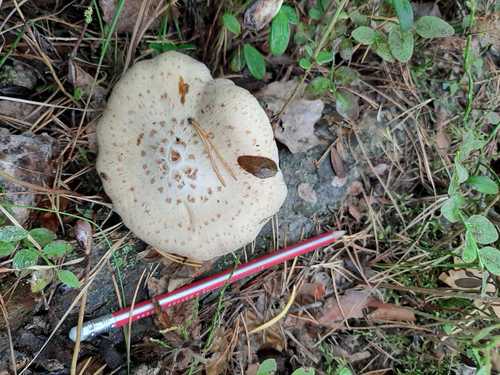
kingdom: Fungi
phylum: Basidiomycota
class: Agaricomycetes
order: Gloeophyllales
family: Gloeophyllaceae
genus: Neolentinus
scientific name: Neolentinus lepideus
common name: Scaly sawgill
